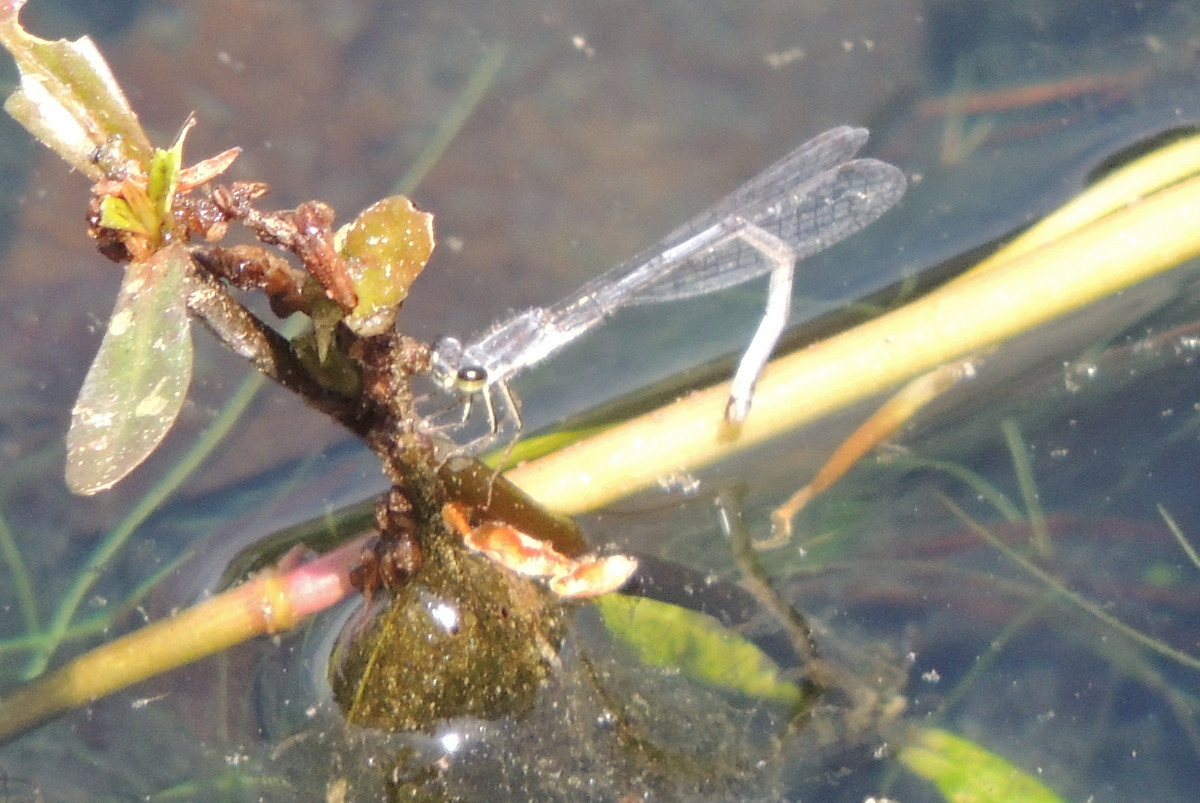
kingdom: Animalia
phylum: Arthropoda
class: Insecta
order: Odonata
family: Coenagrionidae
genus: Ischnura
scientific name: Ischnura posita
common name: Fragile forktail
